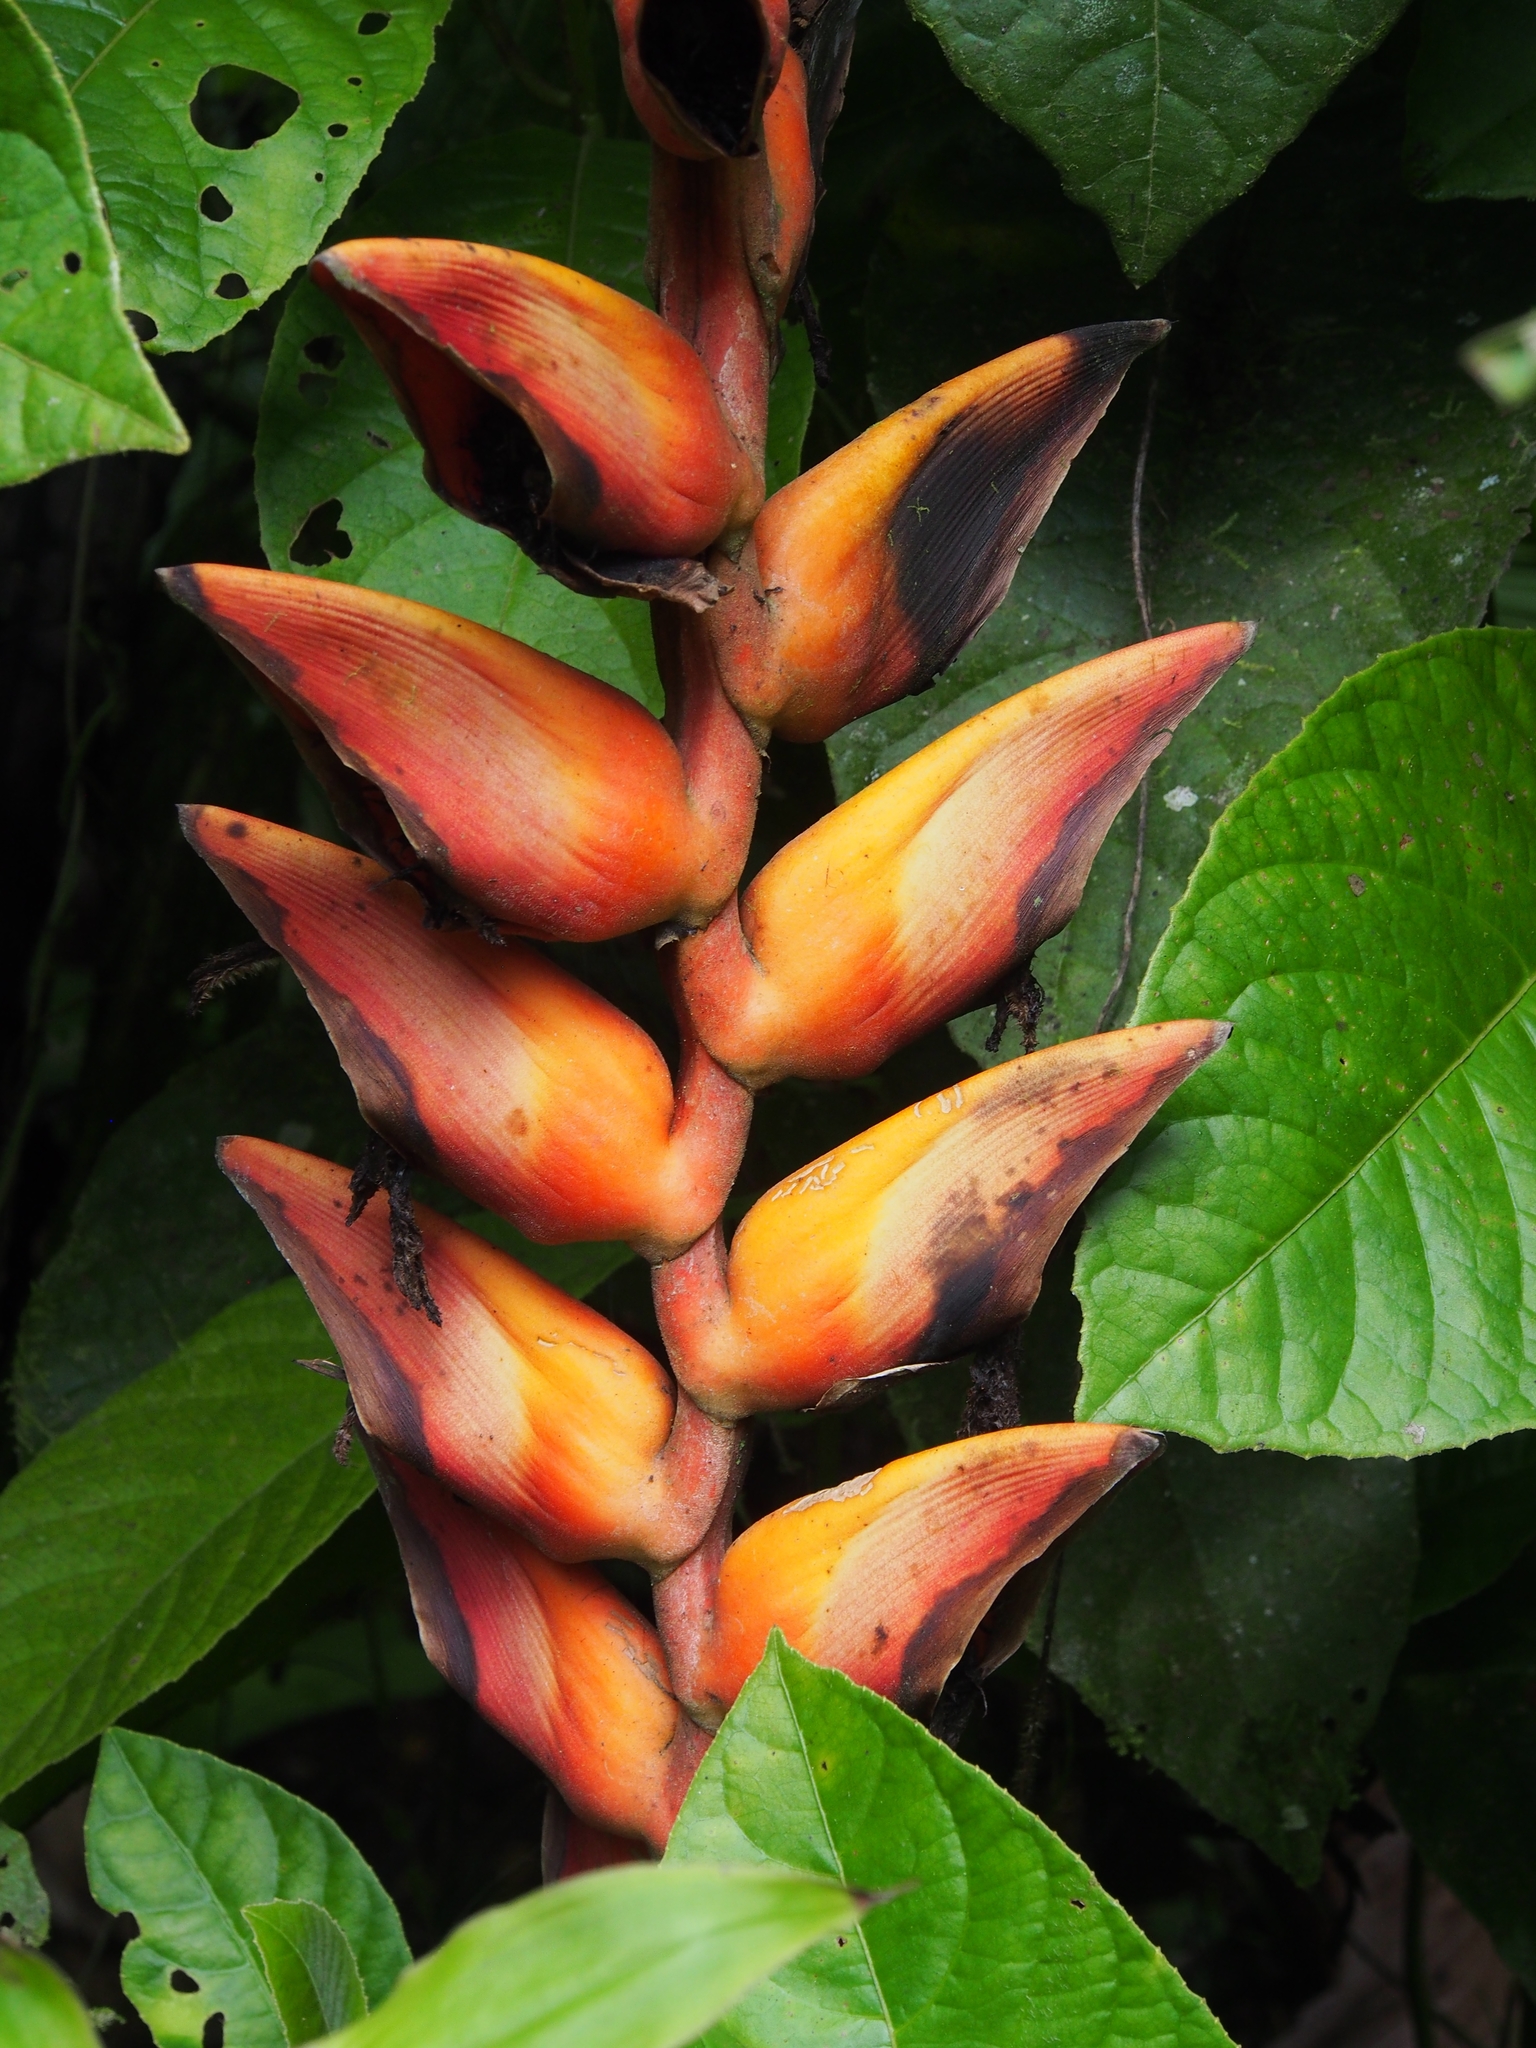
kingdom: Plantae
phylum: Tracheophyta
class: Liliopsida
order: Zingiberales
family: Heliconiaceae
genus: Heliconia
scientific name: Heliconia longa
